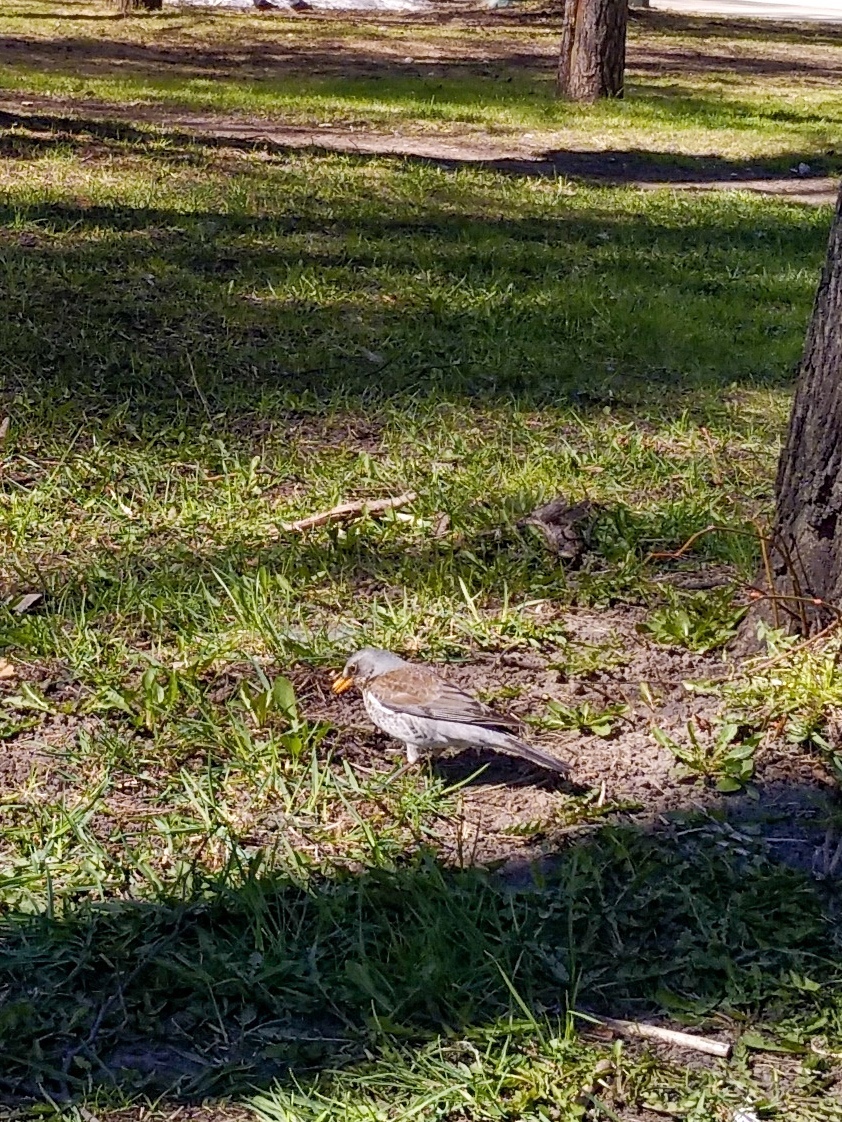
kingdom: Animalia
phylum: Chordata
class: Aves
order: Passeriformes
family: Turdidae
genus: Turdus
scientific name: Turdus pilaris
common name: Fieldfare
